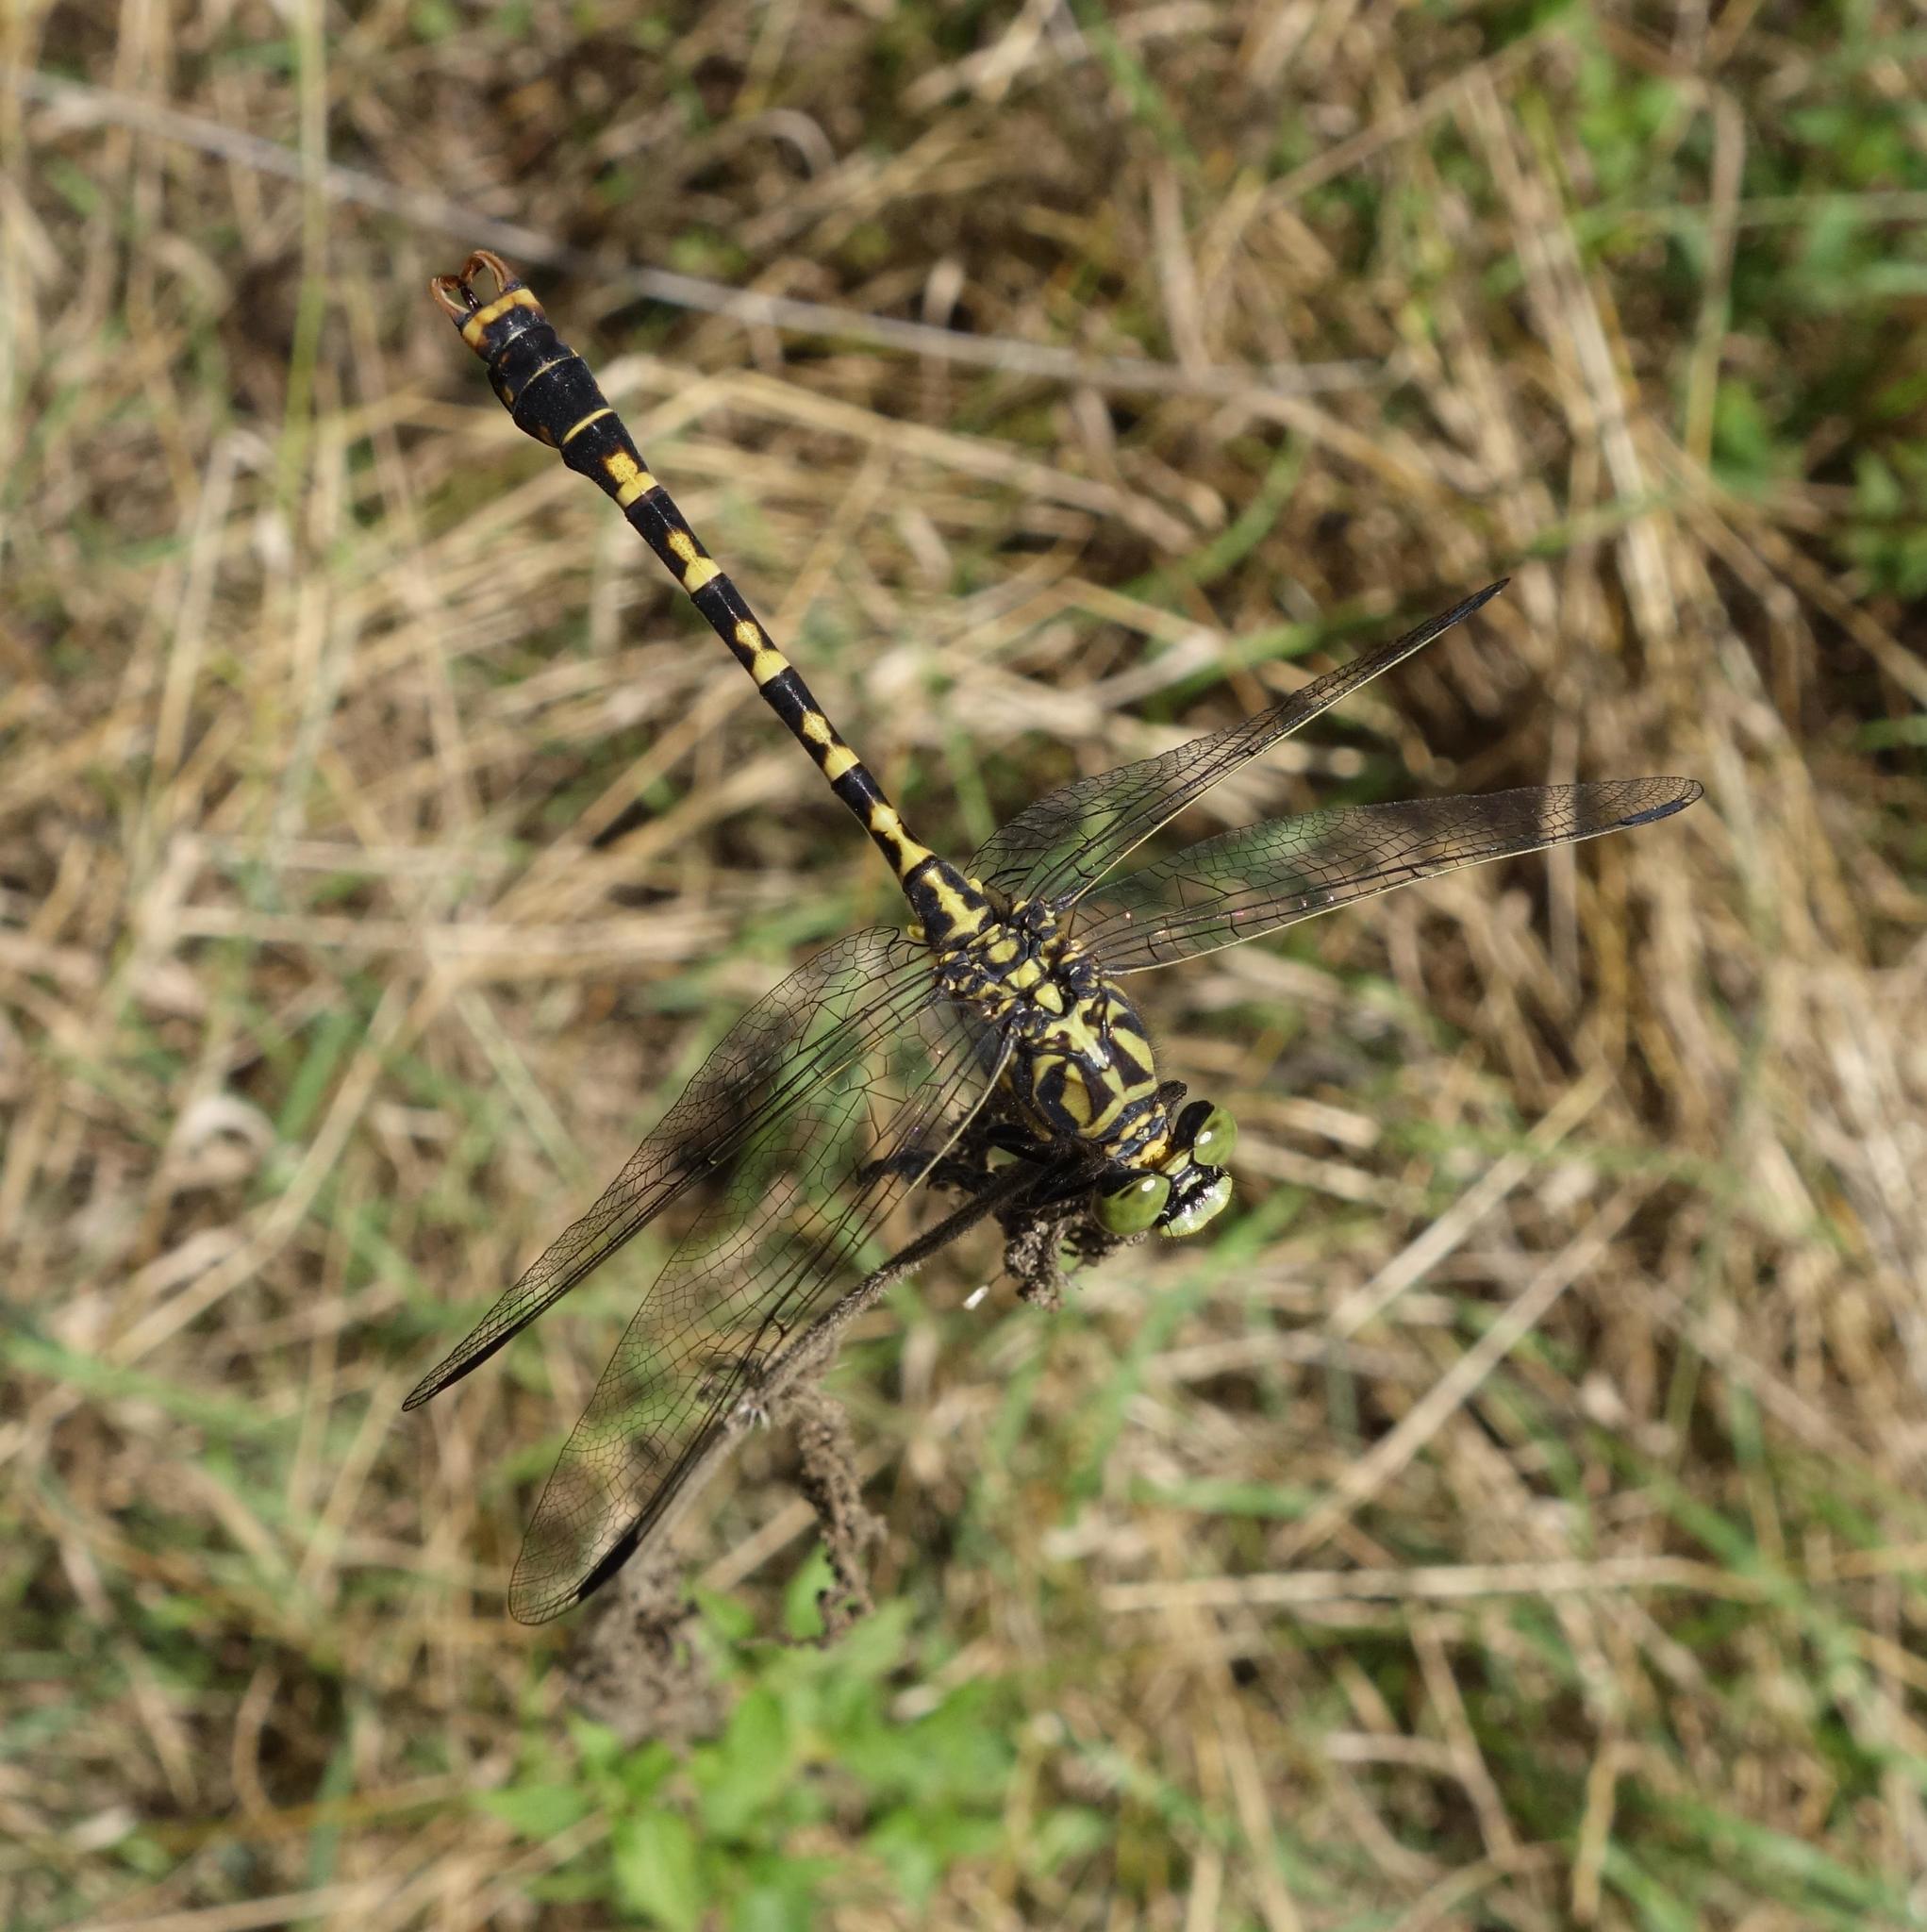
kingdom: Animalia
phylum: Arthropoda
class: Insecta
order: Odonata
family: Gomphidae
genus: Onychogomphus
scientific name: Onychogomphus forcipatus
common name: Small pincertail
